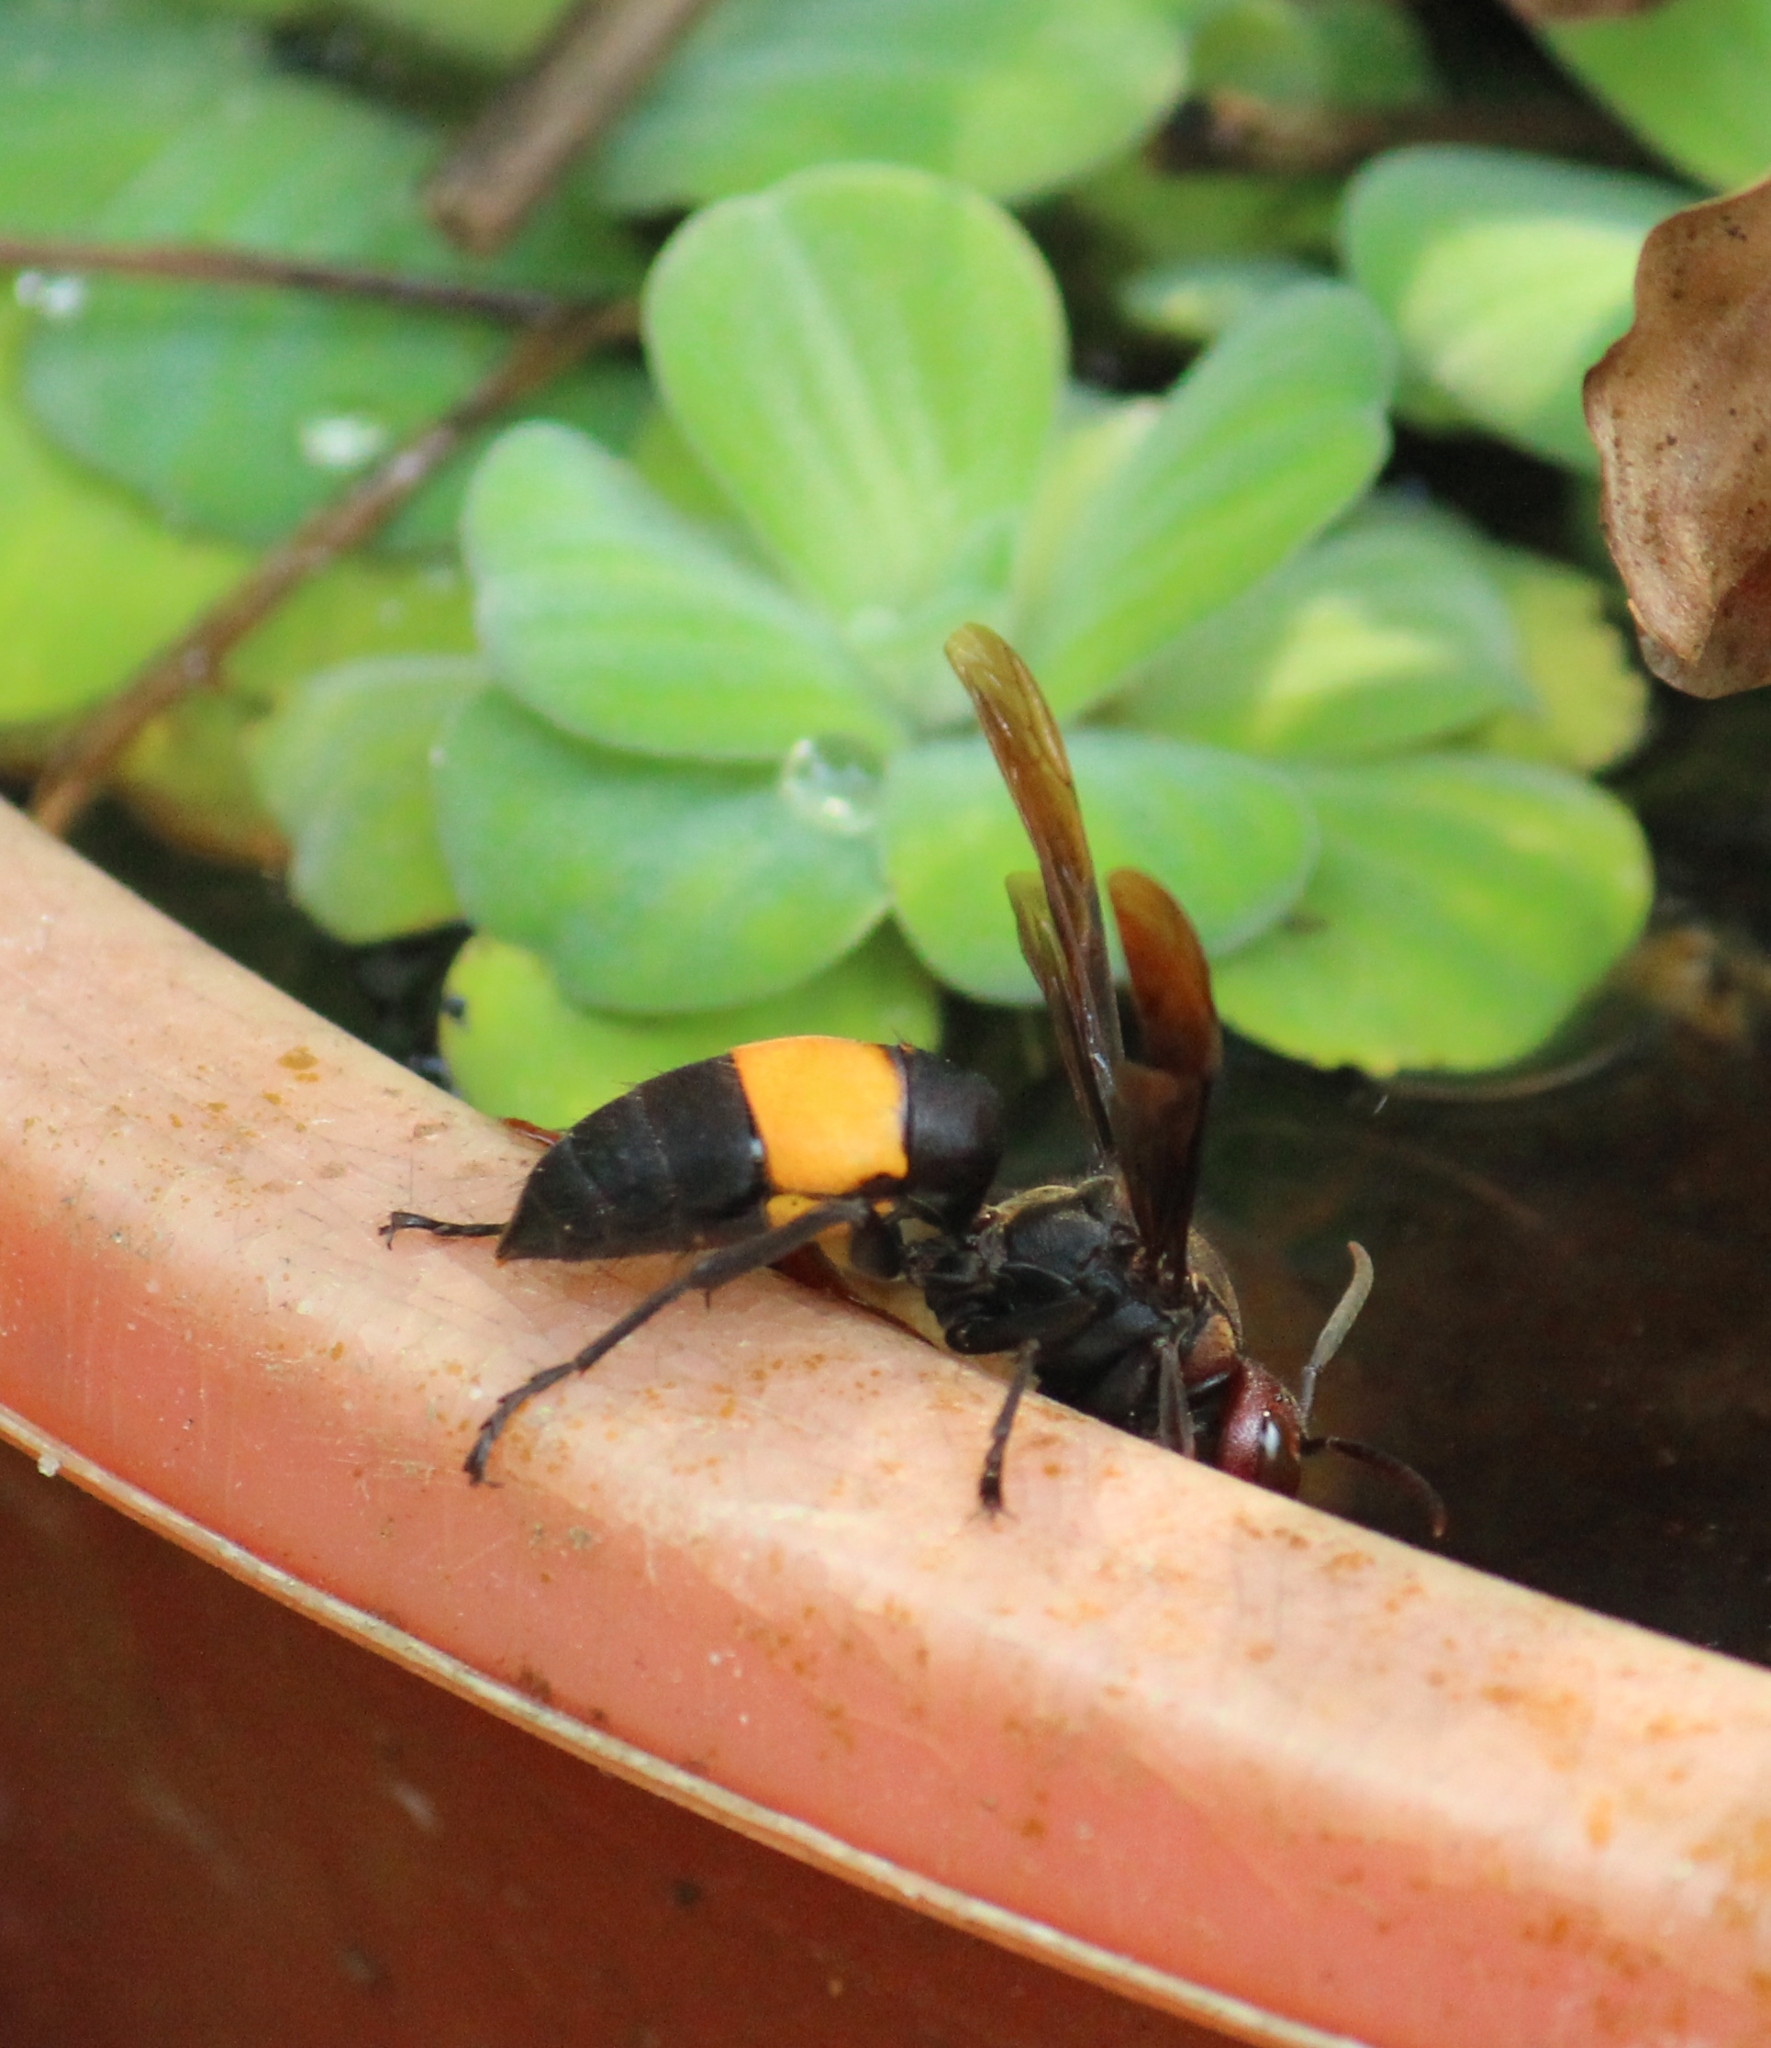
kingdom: Animalia
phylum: Arthropoda
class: Insecta
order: Hymenoptera
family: Vespidae
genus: Vespa
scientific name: Vespa tropica
